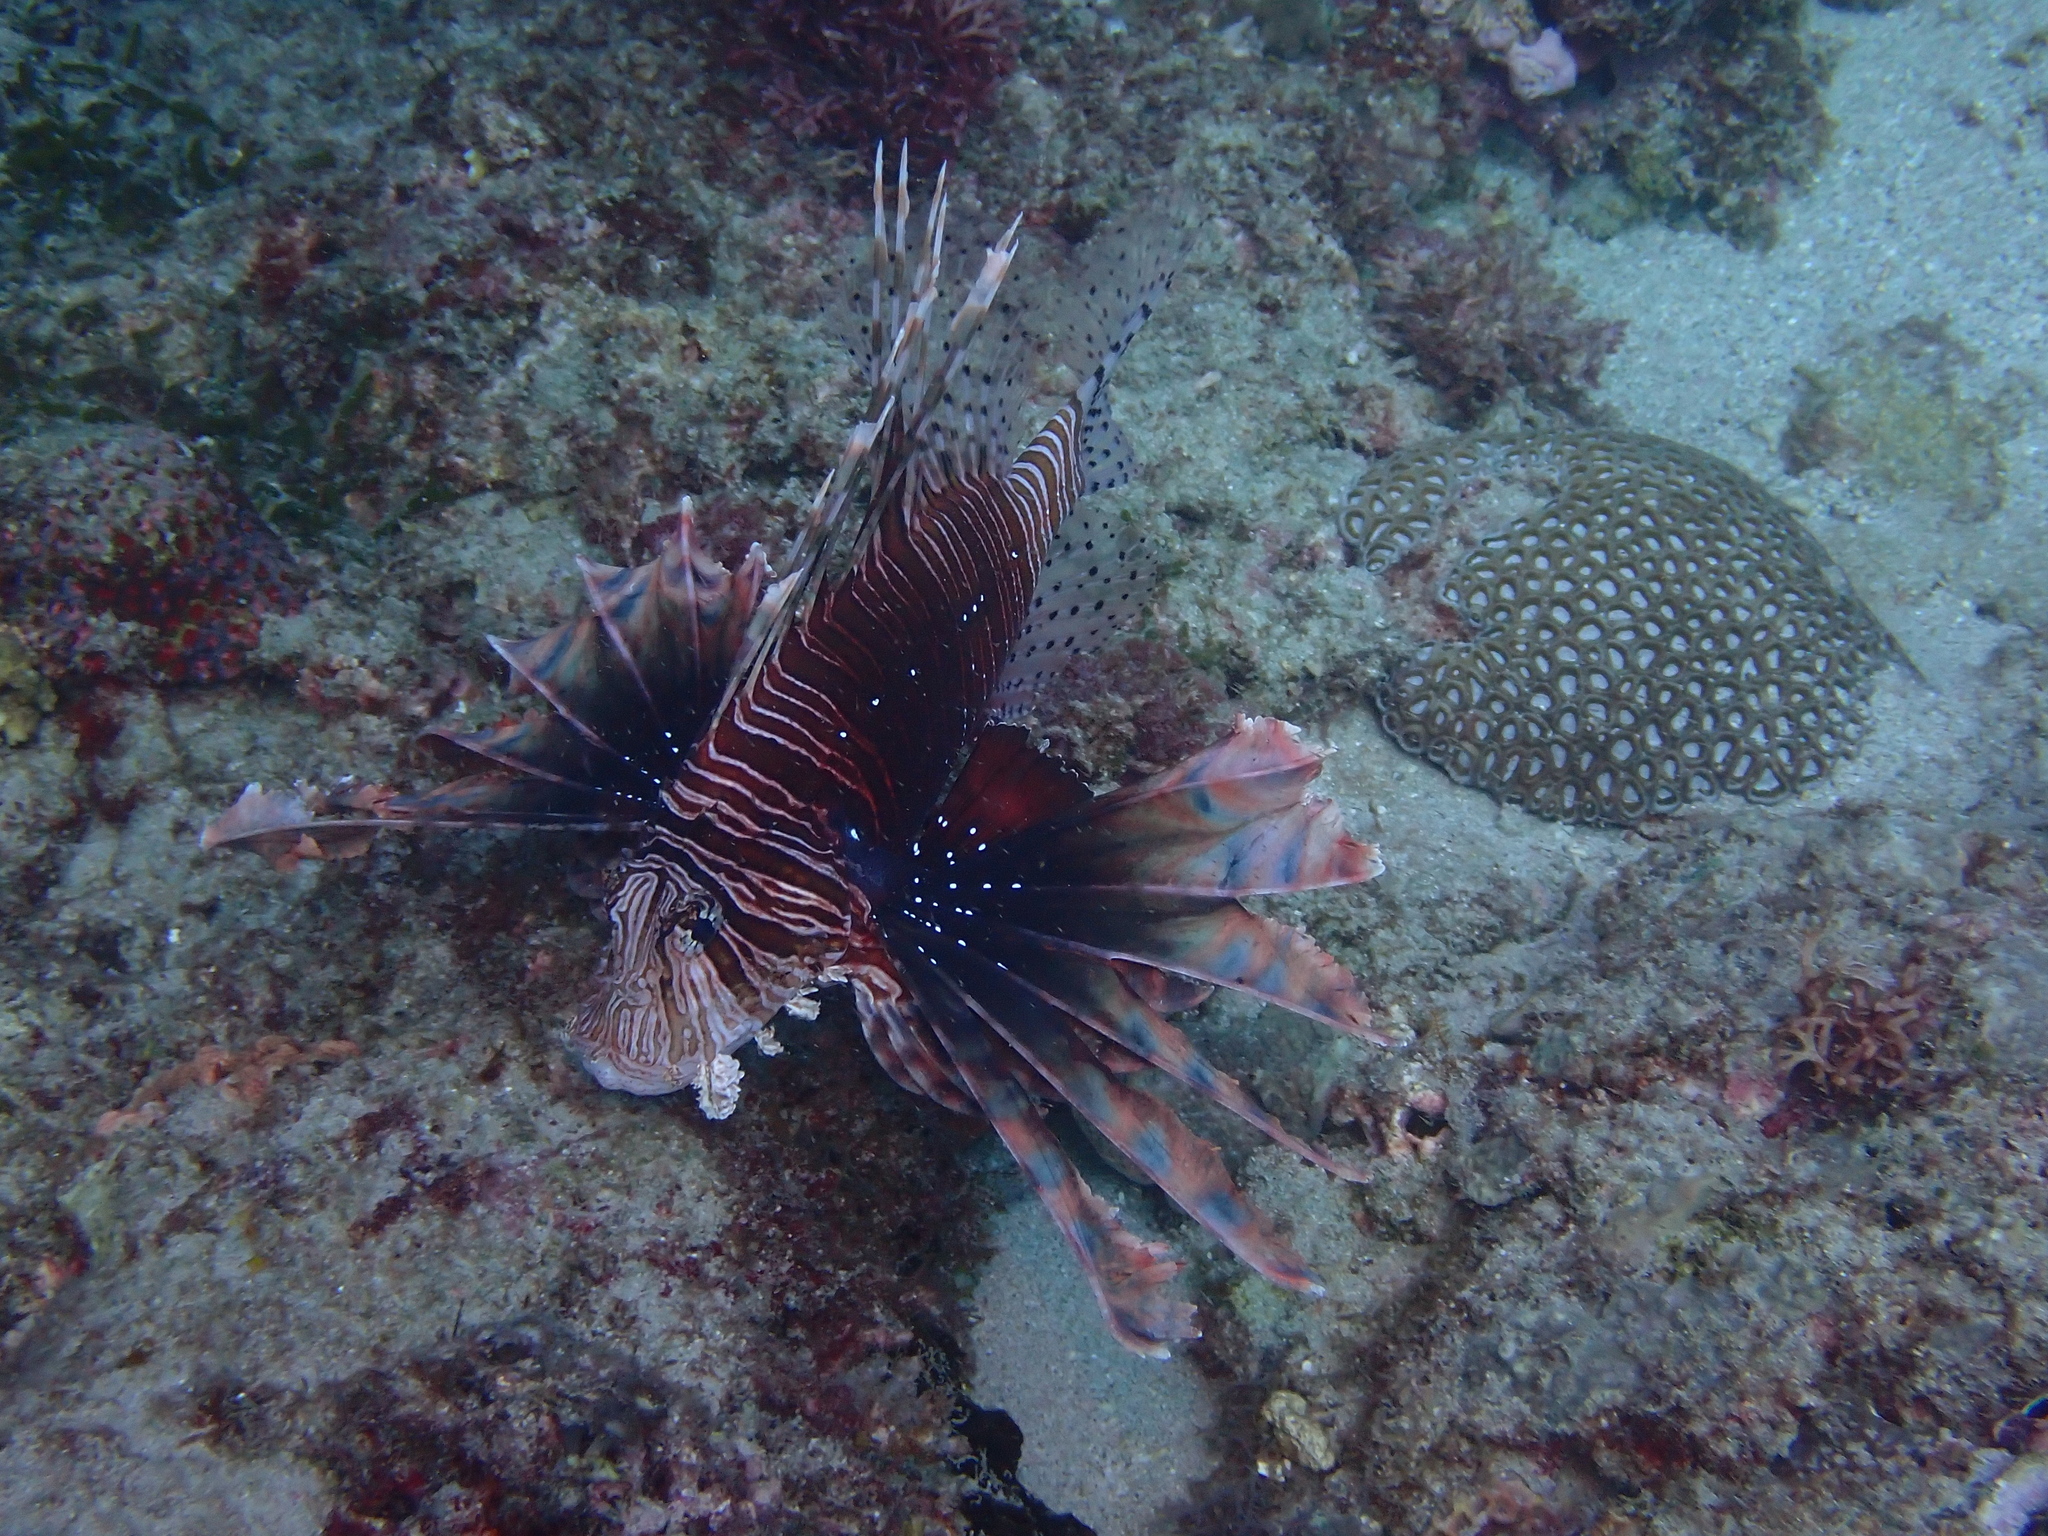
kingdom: Animalia
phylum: Chordata
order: Scorpaeniformes
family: Scorpaenidae
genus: Pterois
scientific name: Pterois volitans
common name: Lionfish
